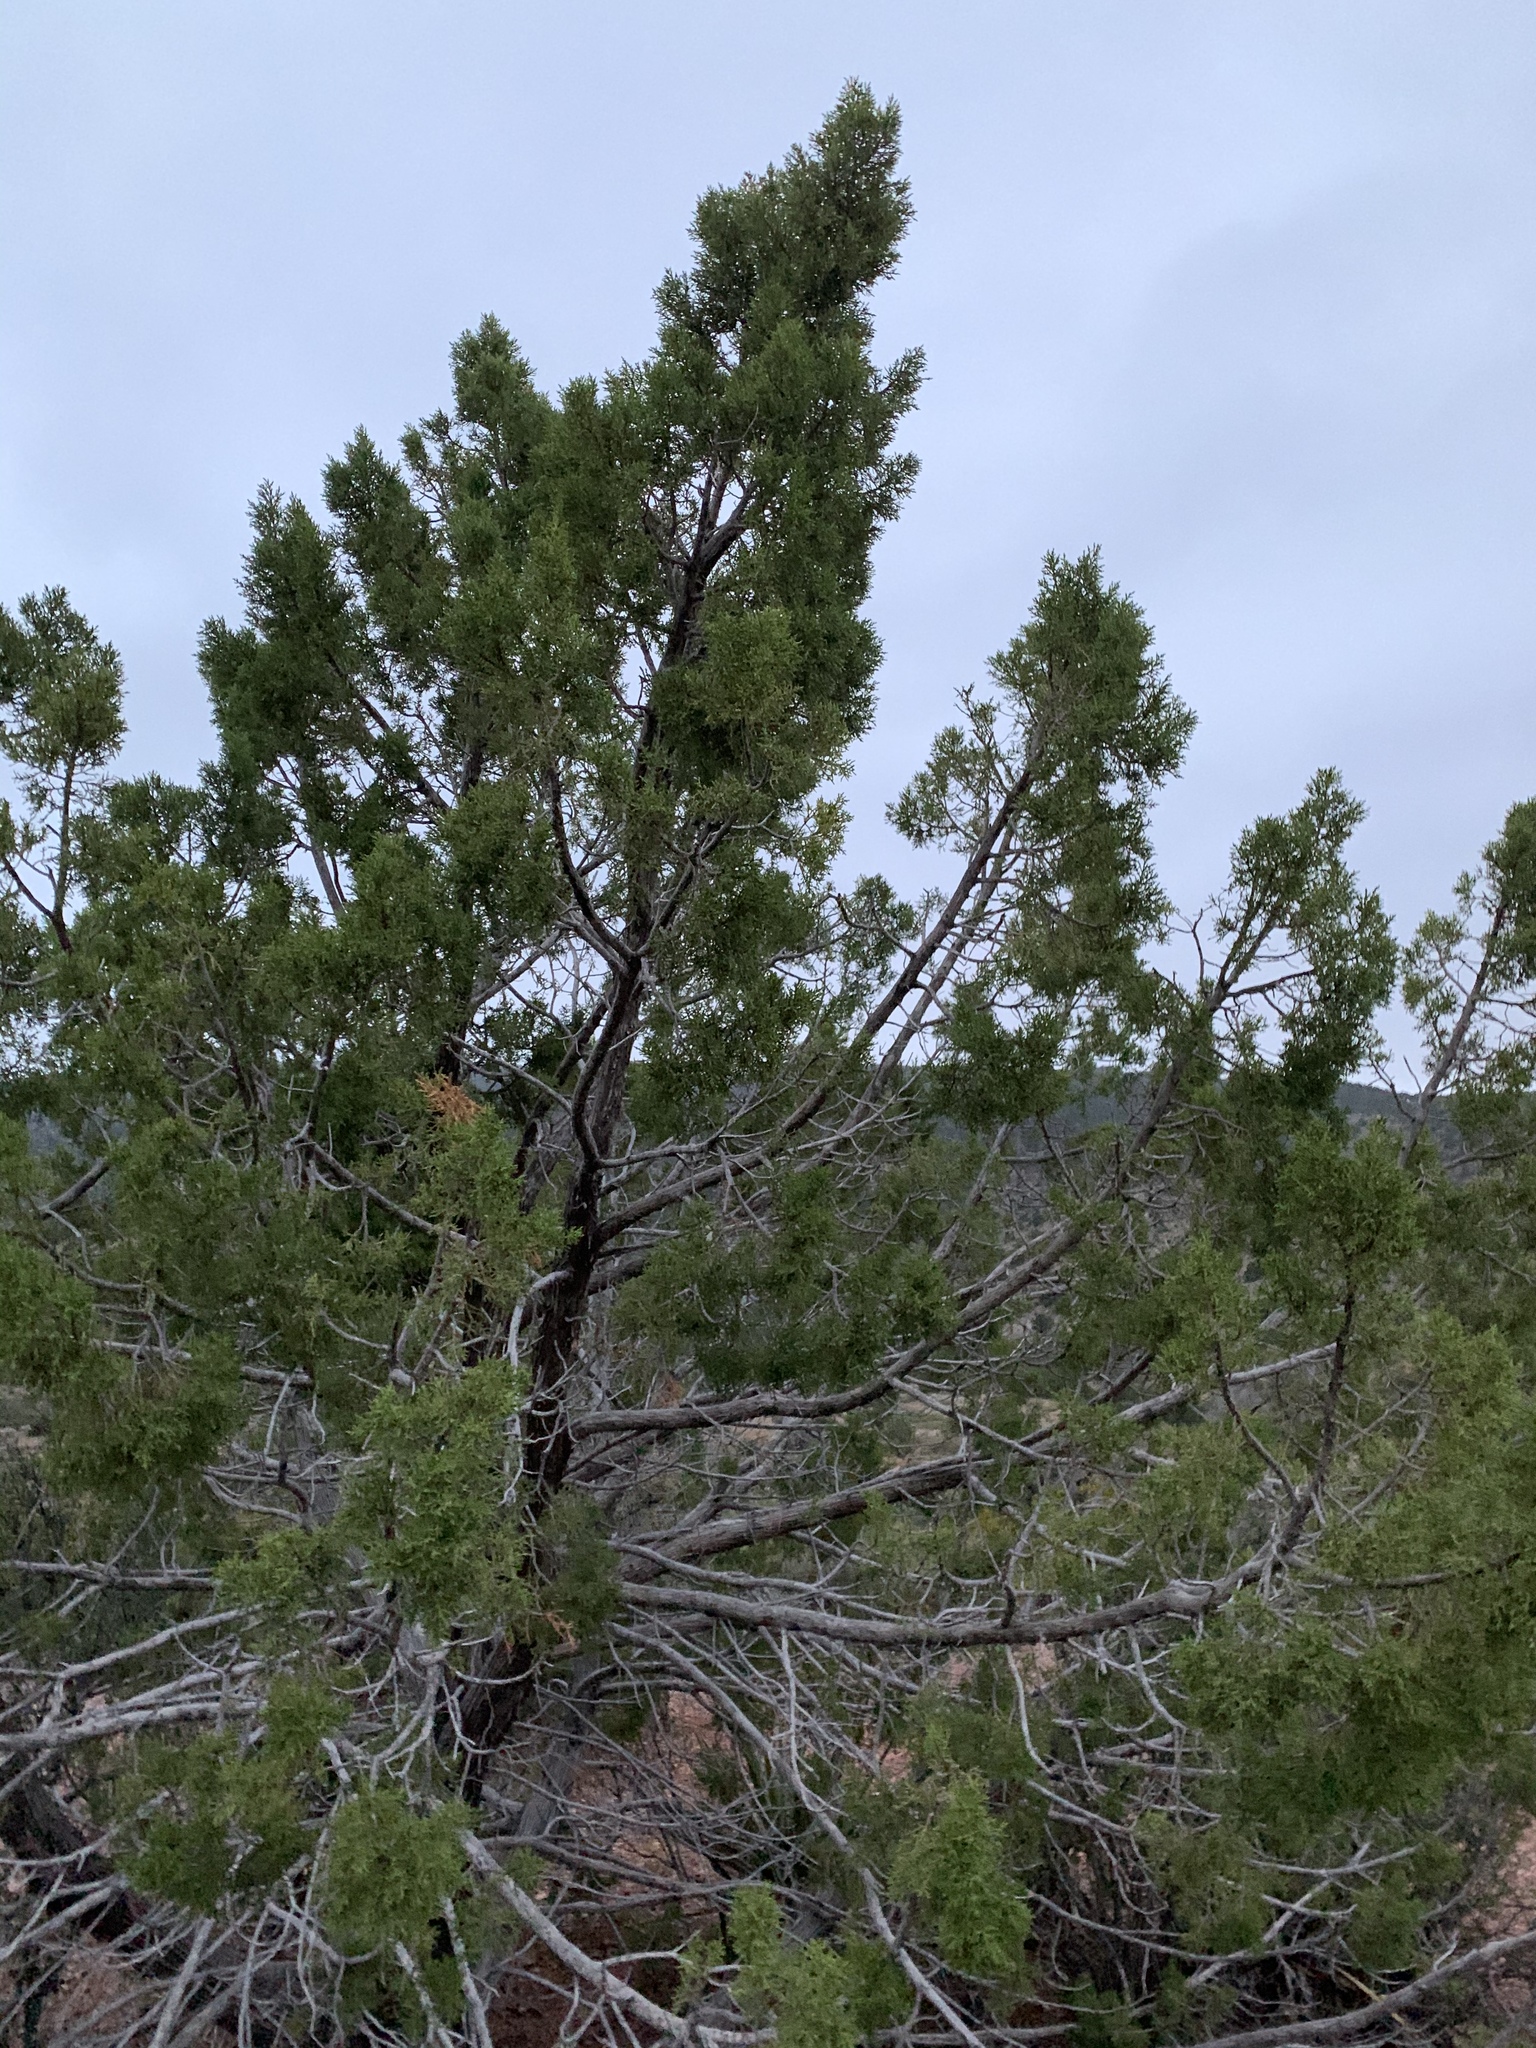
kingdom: Plantae
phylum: Tracheophyta
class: Pinopsida
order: Pinales
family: Cupressaceae
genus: Juniperus
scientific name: Juniperus monosperma
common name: One-seed juniper
